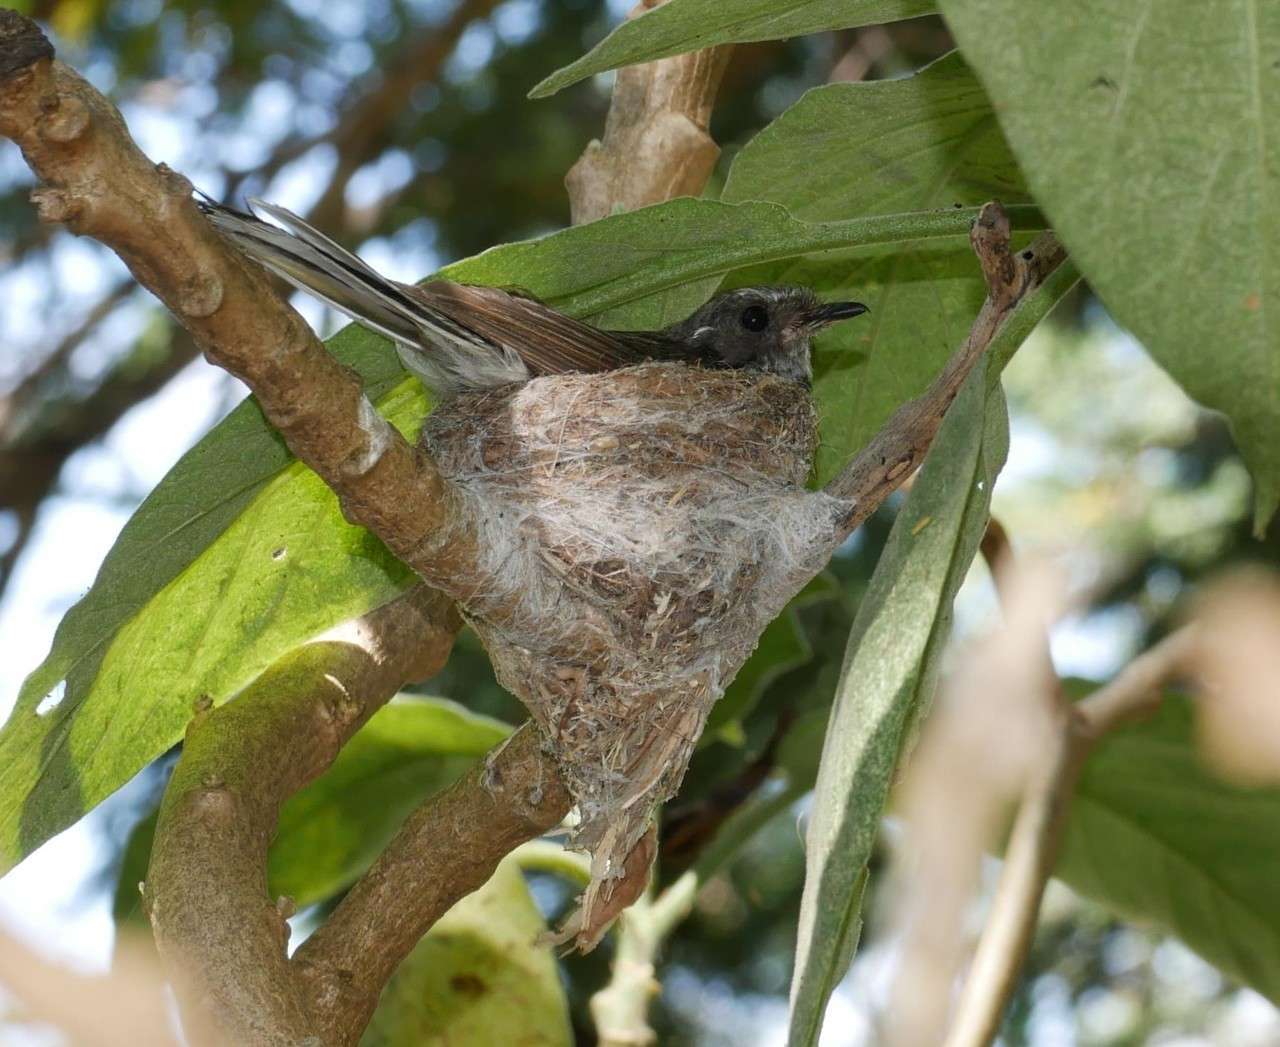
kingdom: Animalia
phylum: Chordata
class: Aves
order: Passeriformes
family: Rhipiduridae
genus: Rhipidura
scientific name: Rhipidura albiscapa
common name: Grey fantail
